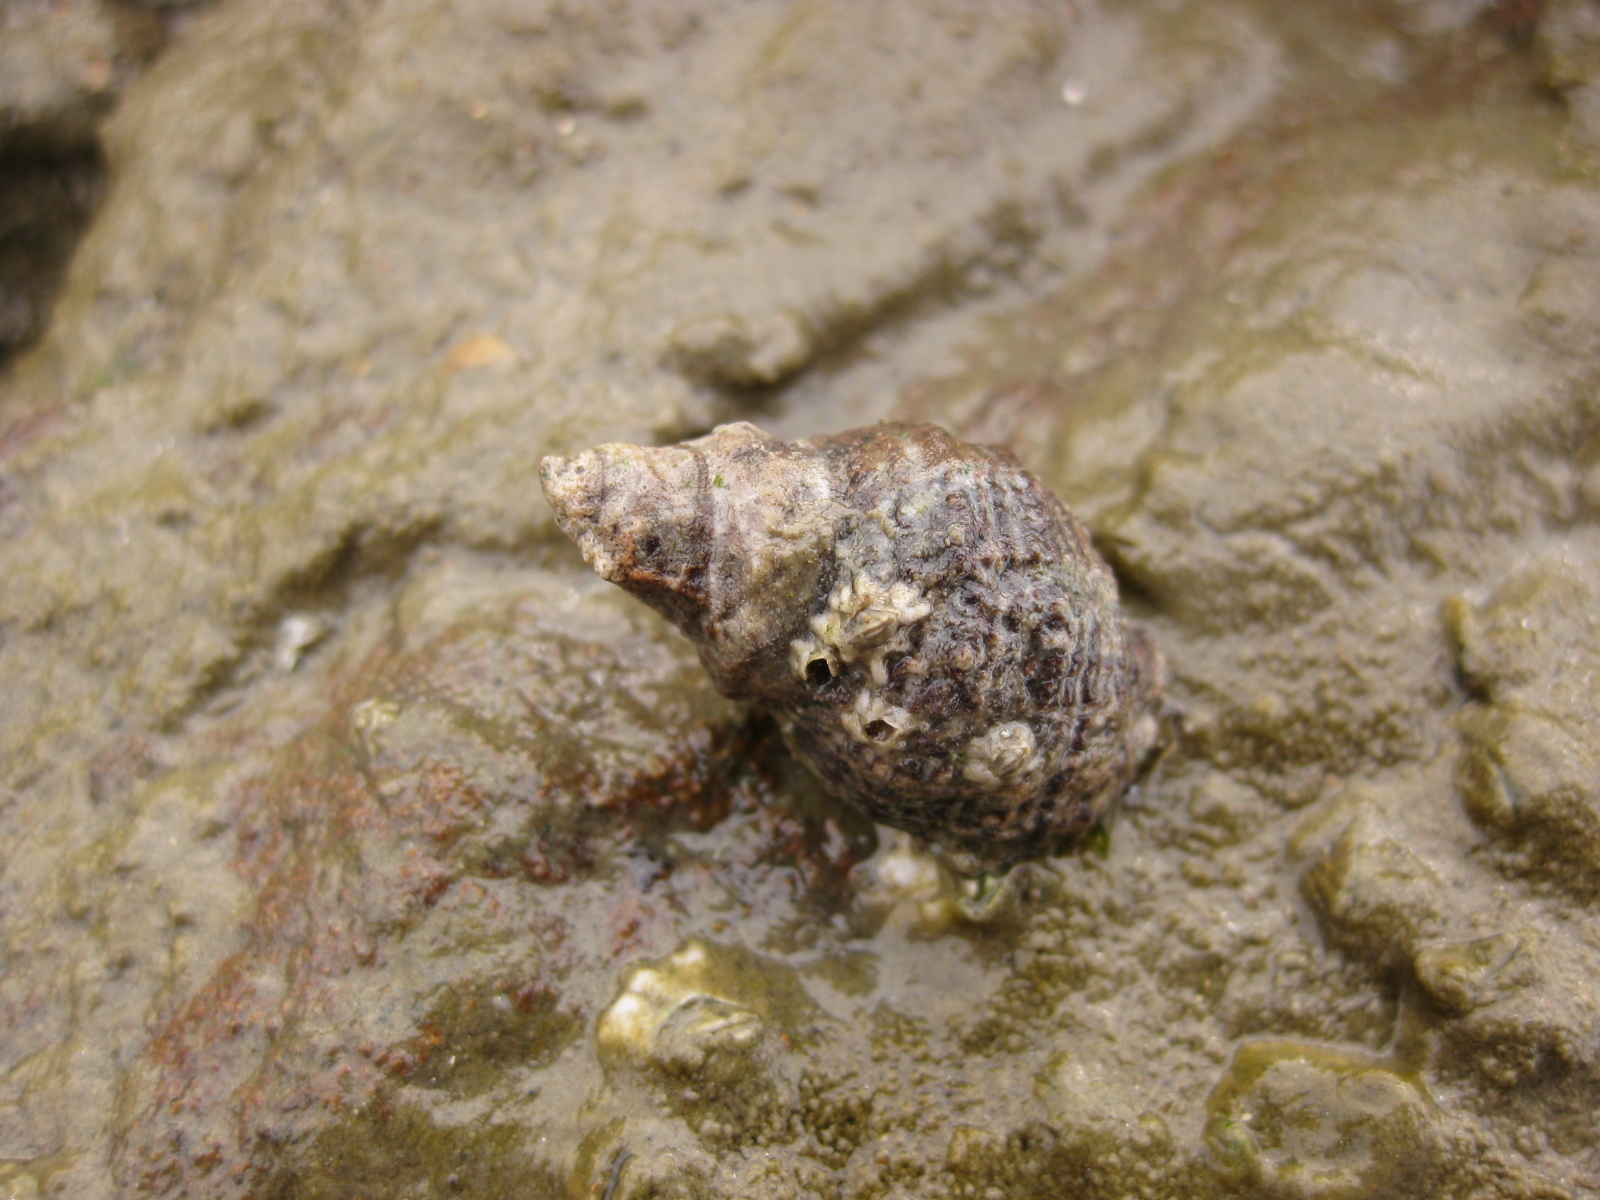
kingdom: Animalia
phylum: Mollusca
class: Gastropoda
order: Neogastropoda
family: Muricidae
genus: Haustrum
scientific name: Haustrum albomarginatum
